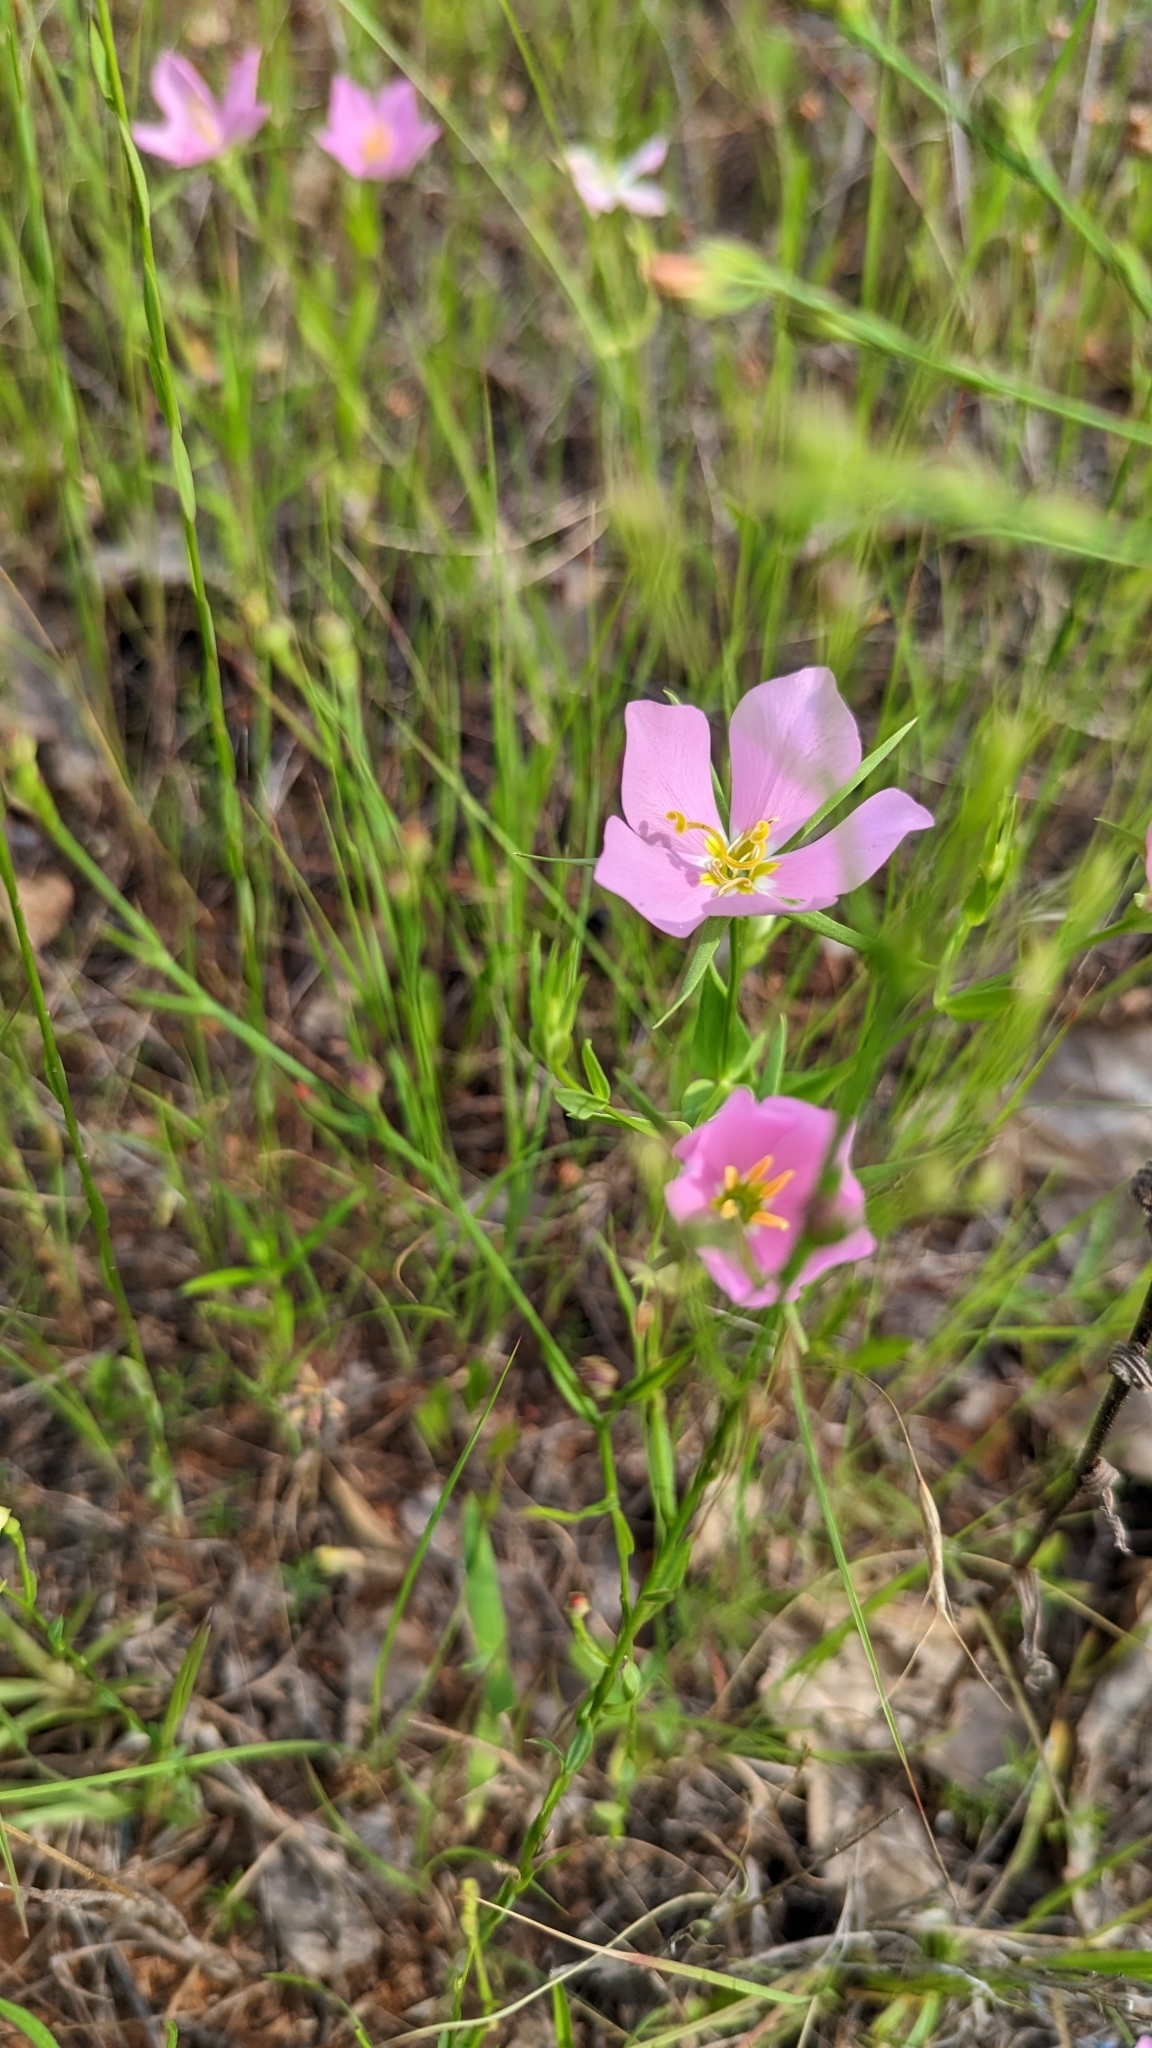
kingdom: Plantae
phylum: Tracheophyta
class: Magnoliopsida
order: Gentianales
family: Gentianaceae
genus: Sabatia
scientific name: Sabatia campestris
